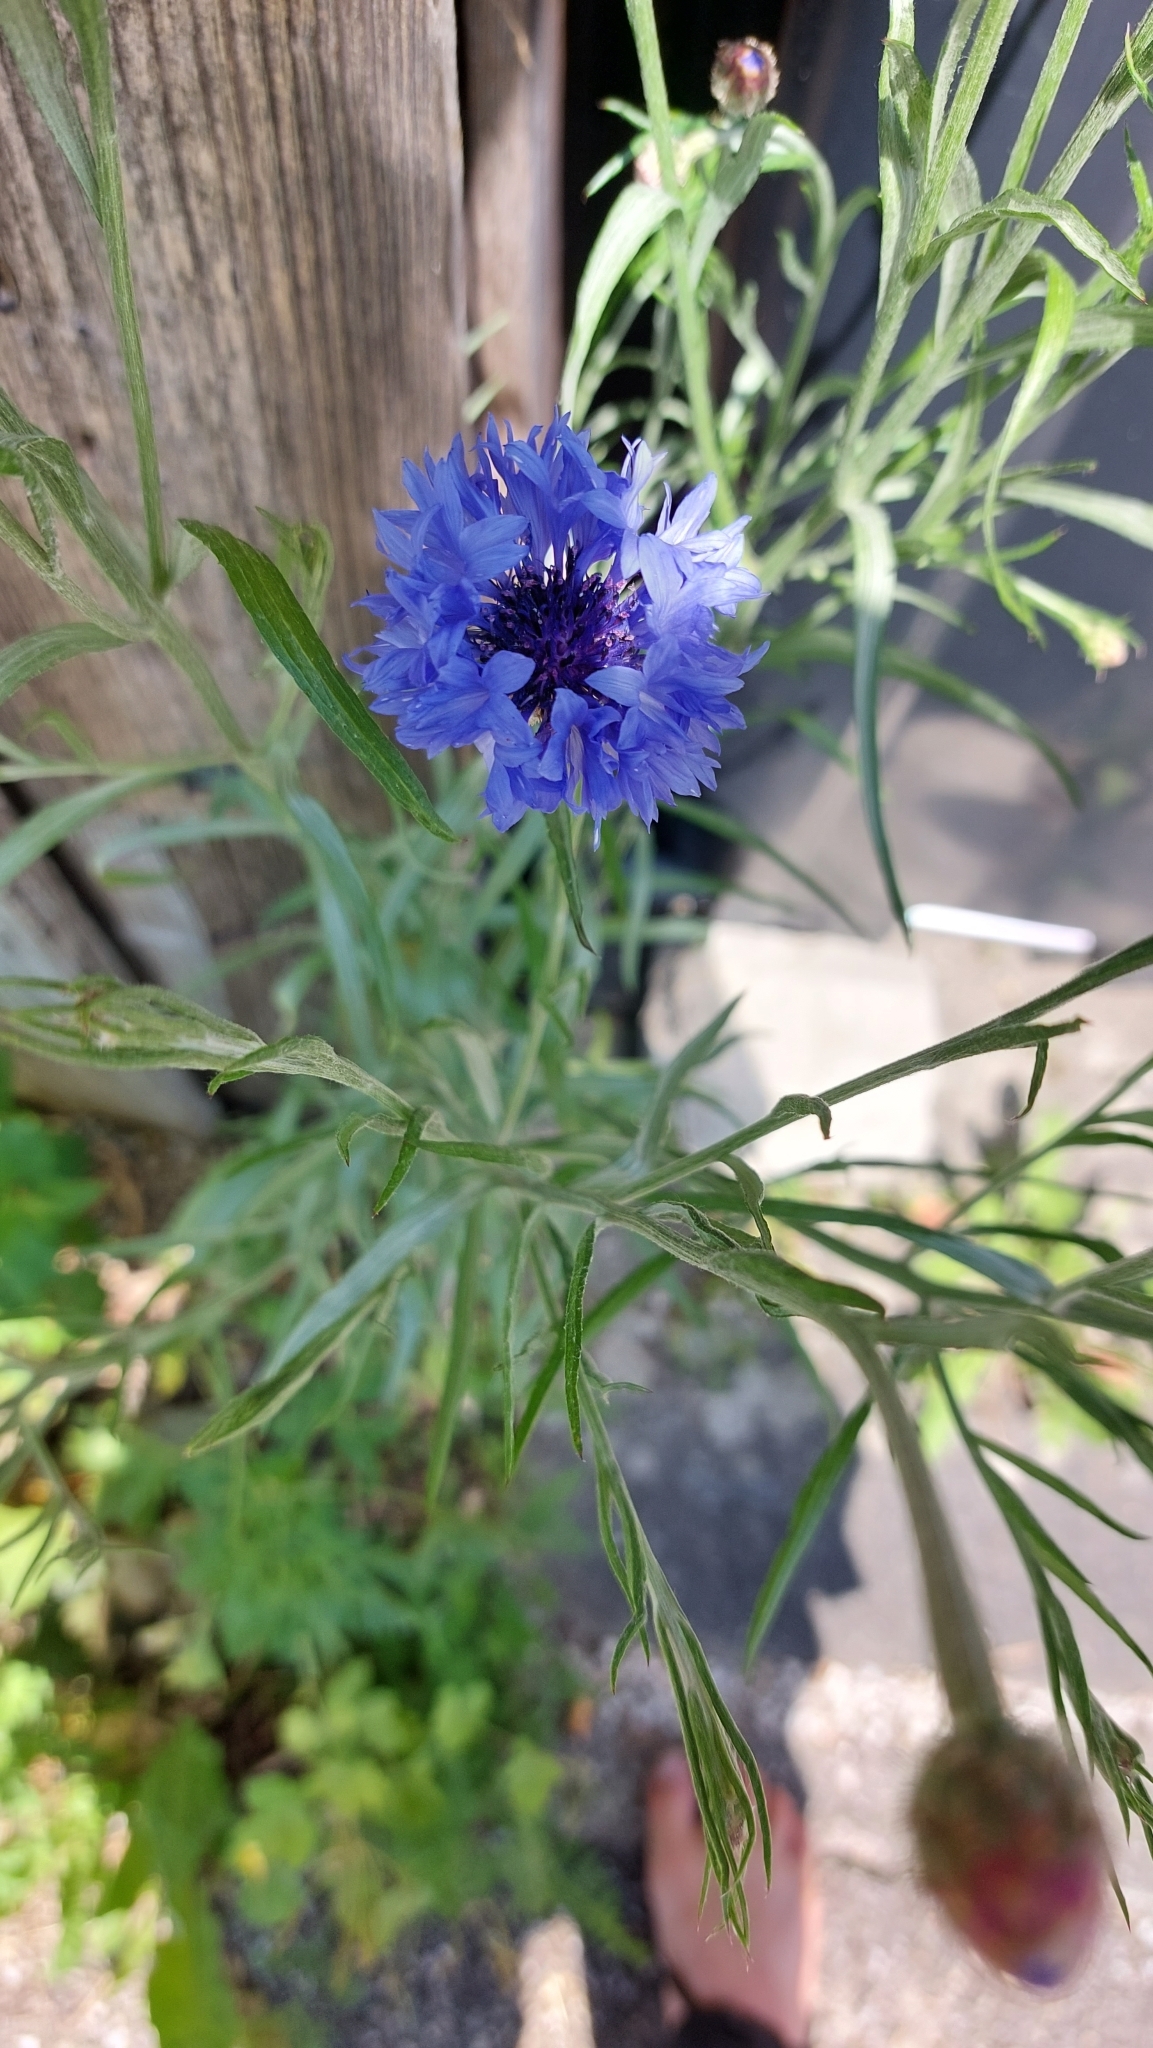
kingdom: Plantae
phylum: Tracheophyta
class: Magnoliopsida
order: Asterales
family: Asteraceae
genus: Centaurea
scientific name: Centaurea cyanus
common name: Cornflower
